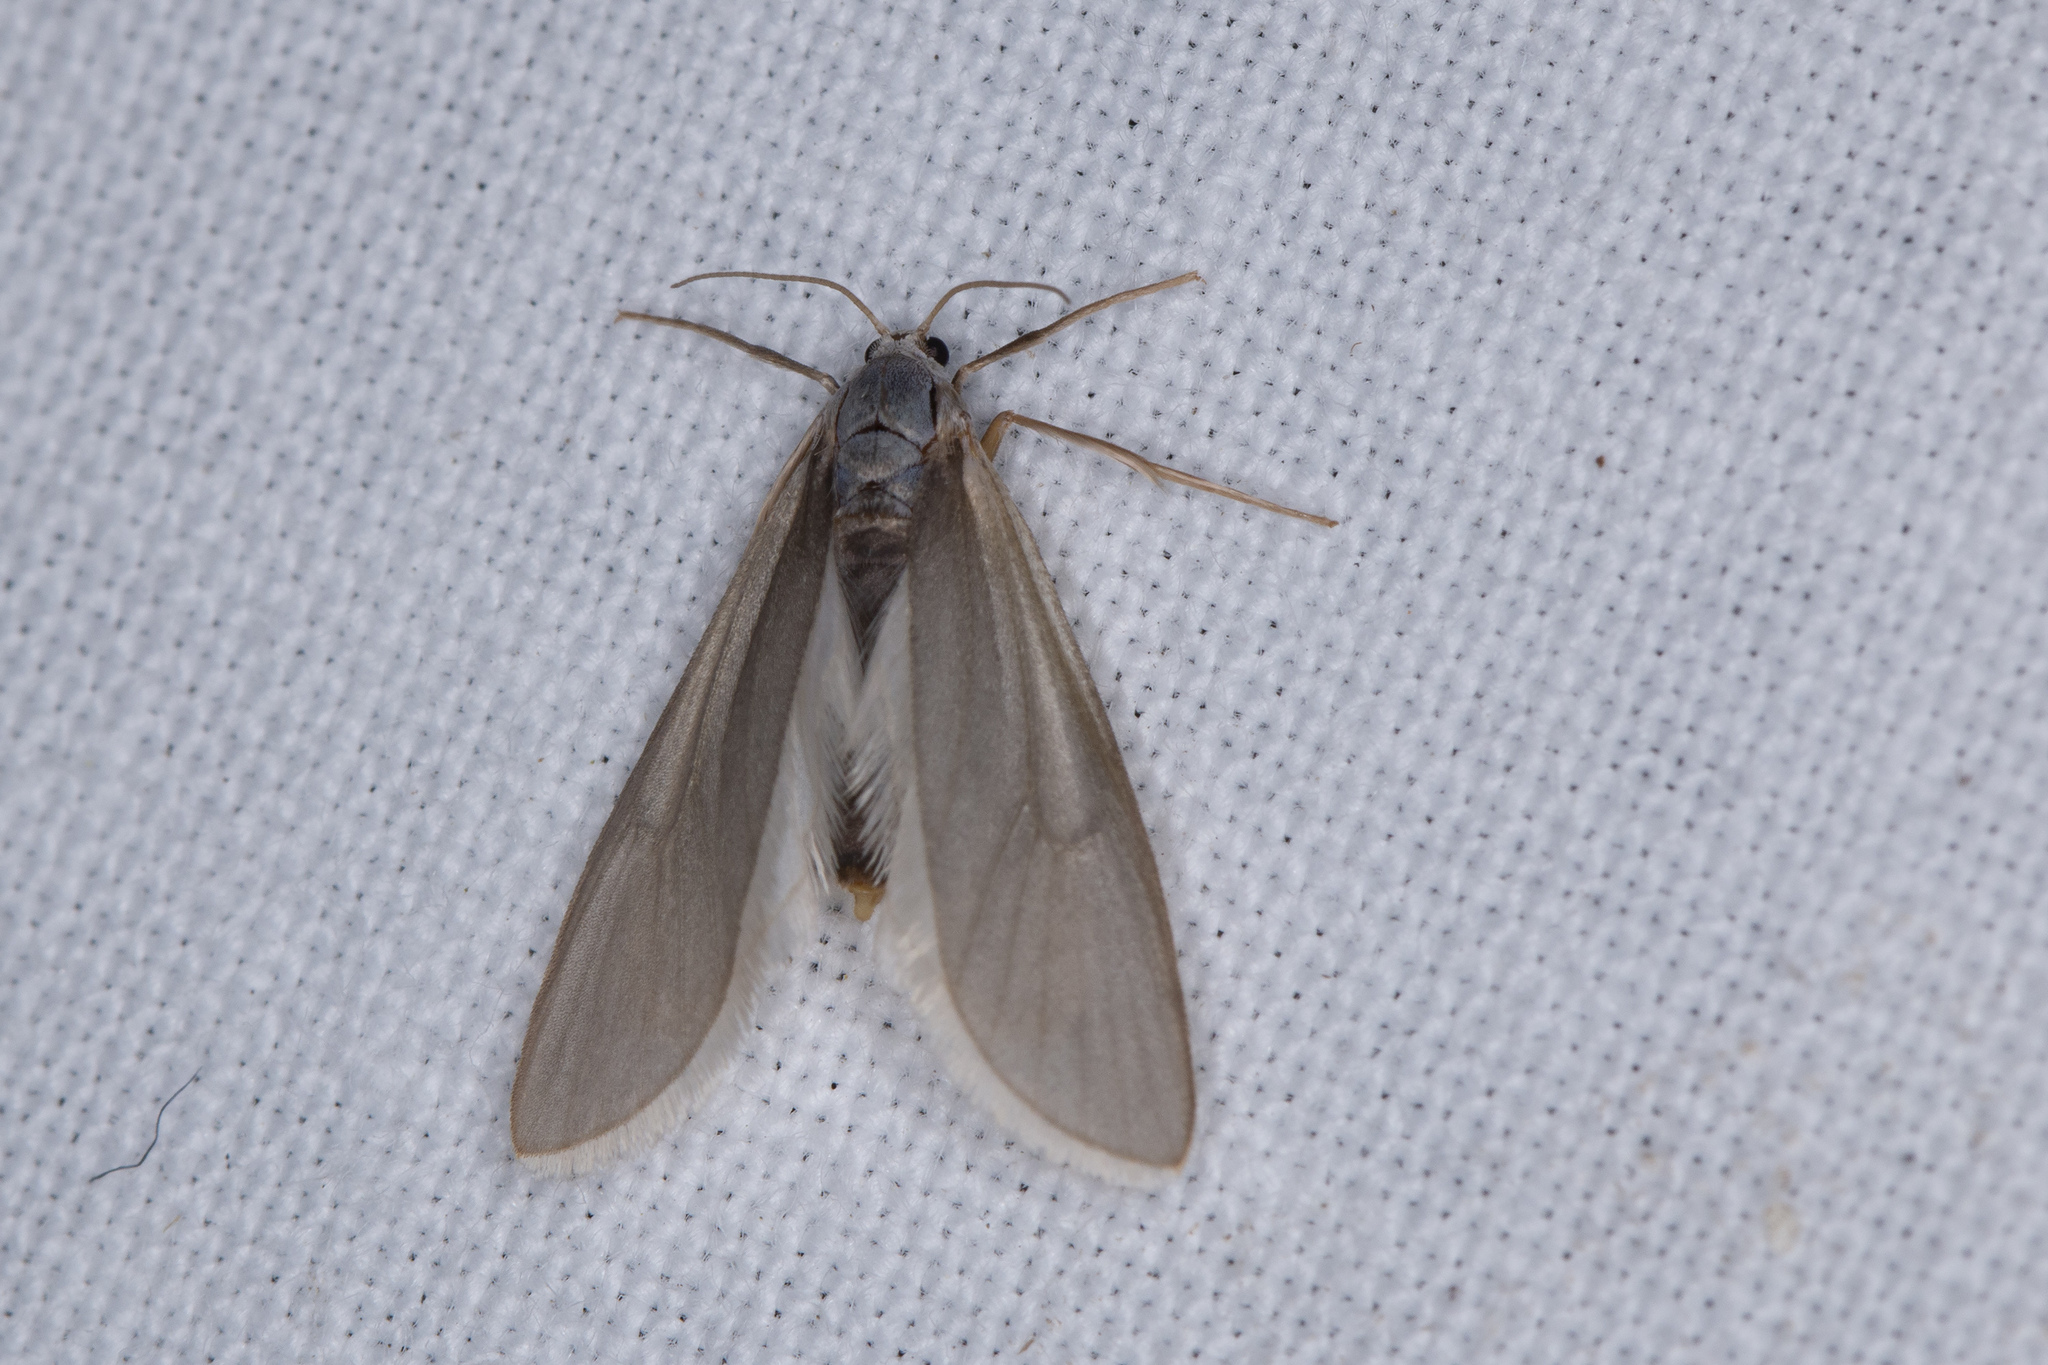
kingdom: Animalia
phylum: Arthropoda
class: Insecta
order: Lepidoptera
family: Crambidae
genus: Acentria
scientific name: Acentria ephemerella
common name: European water moth
